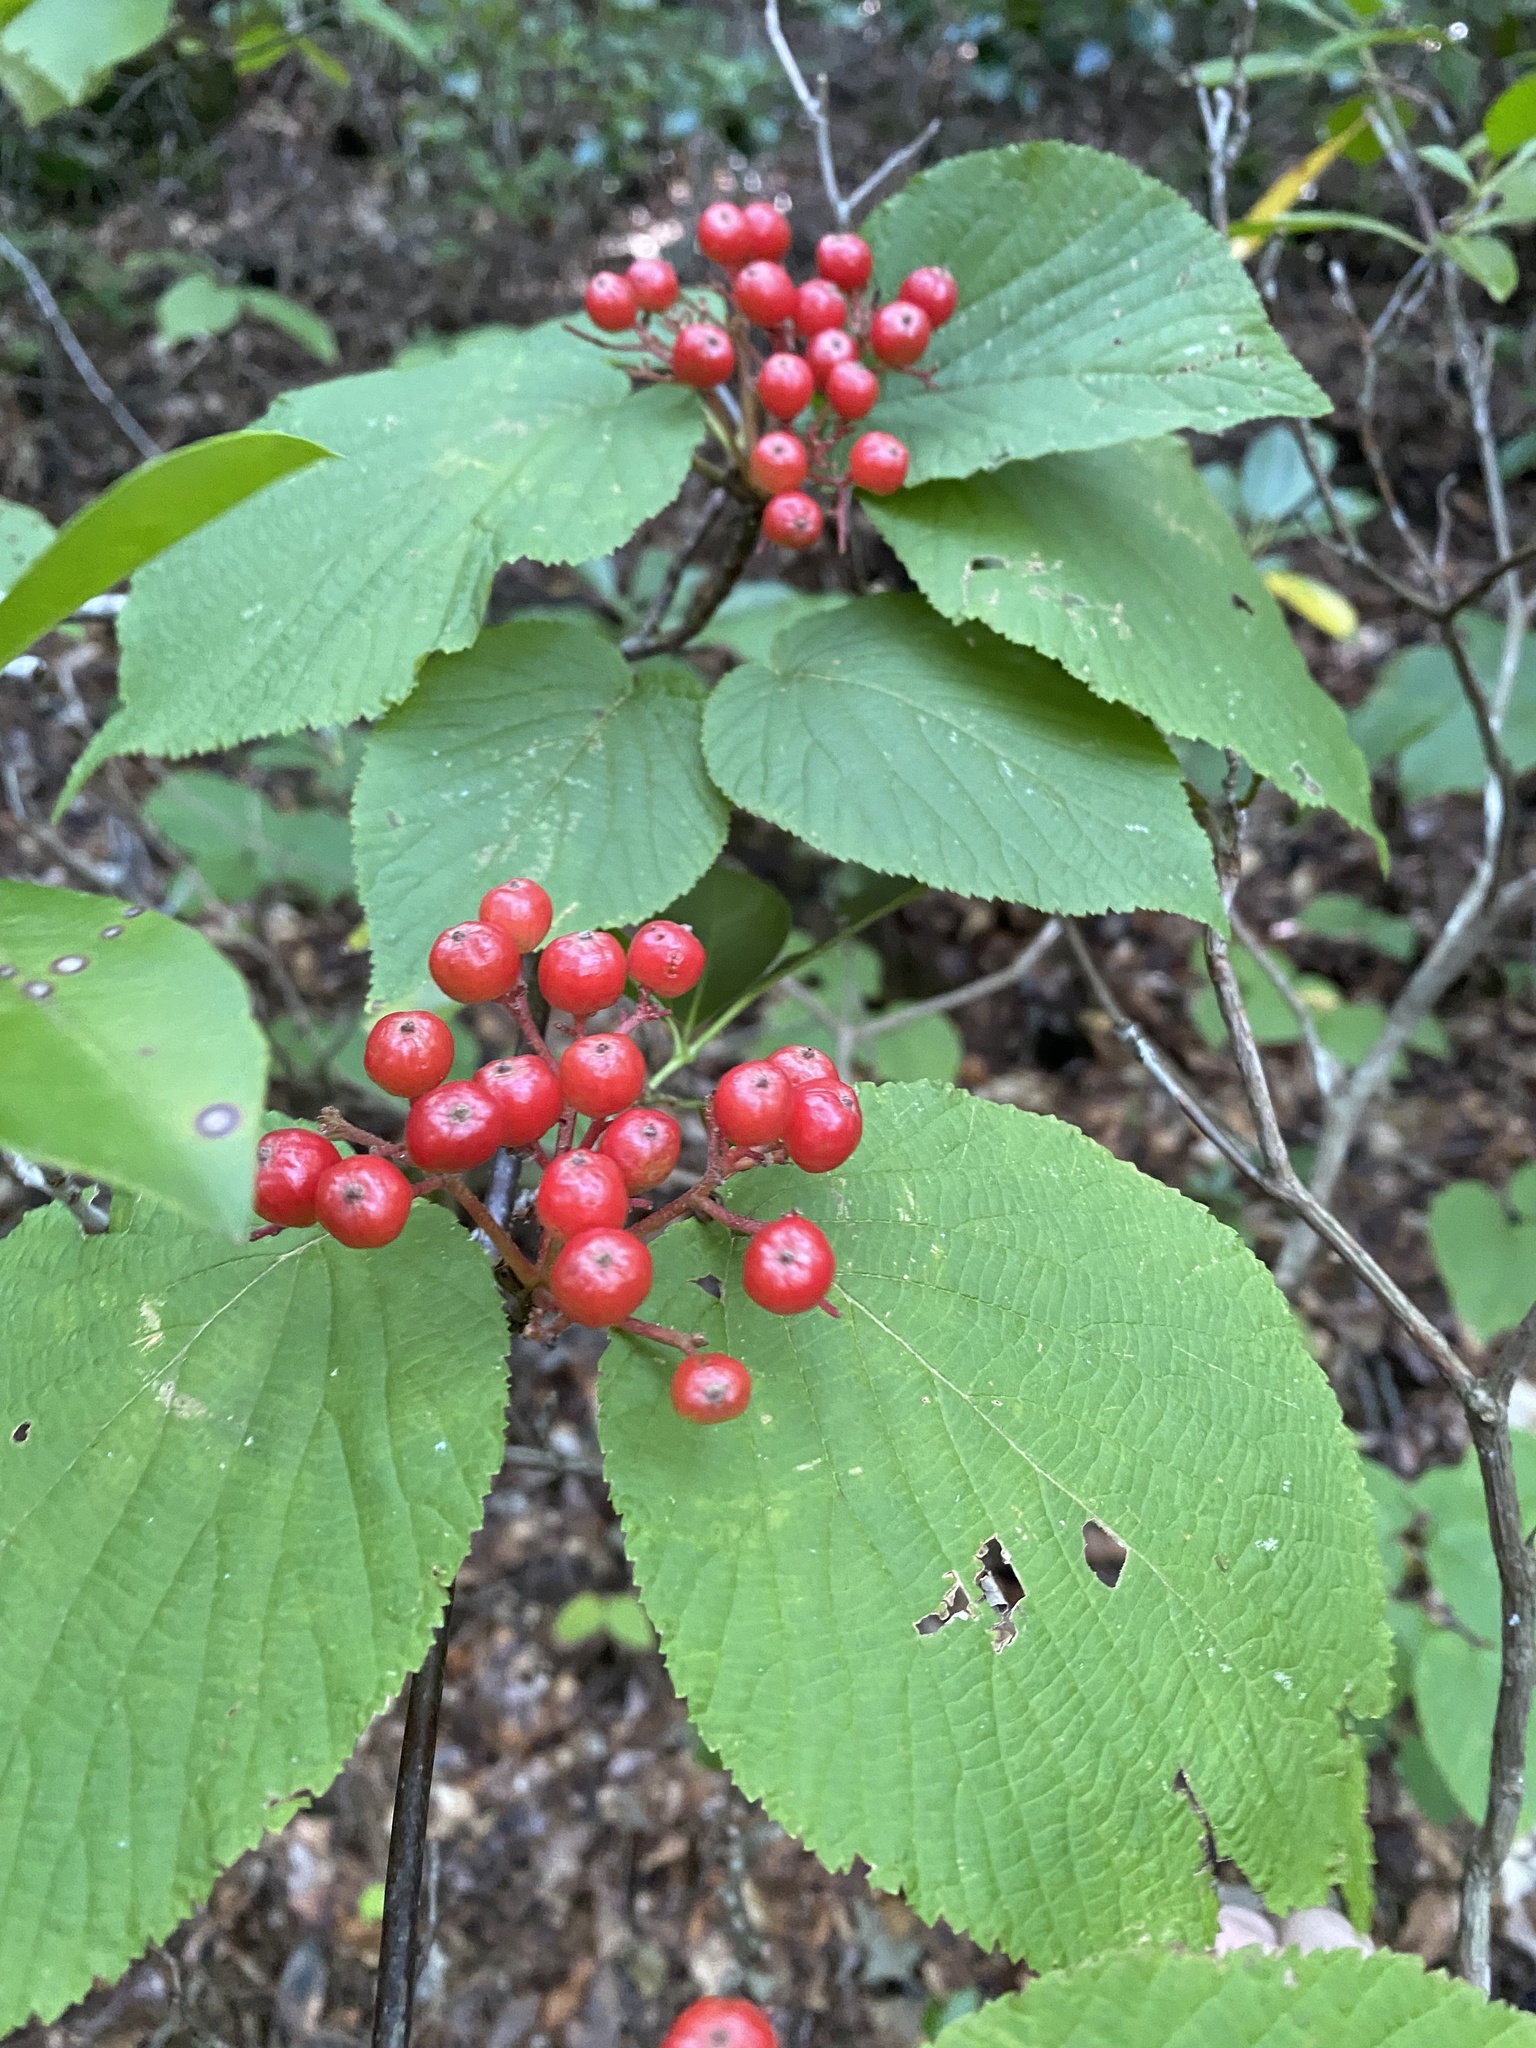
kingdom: Plantae
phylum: Tracheophyta
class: Magnoliopsida
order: Dipsacales
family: Viburnaceae
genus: Viburnum
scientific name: Viburnum lantanoides
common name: Hobblebush
